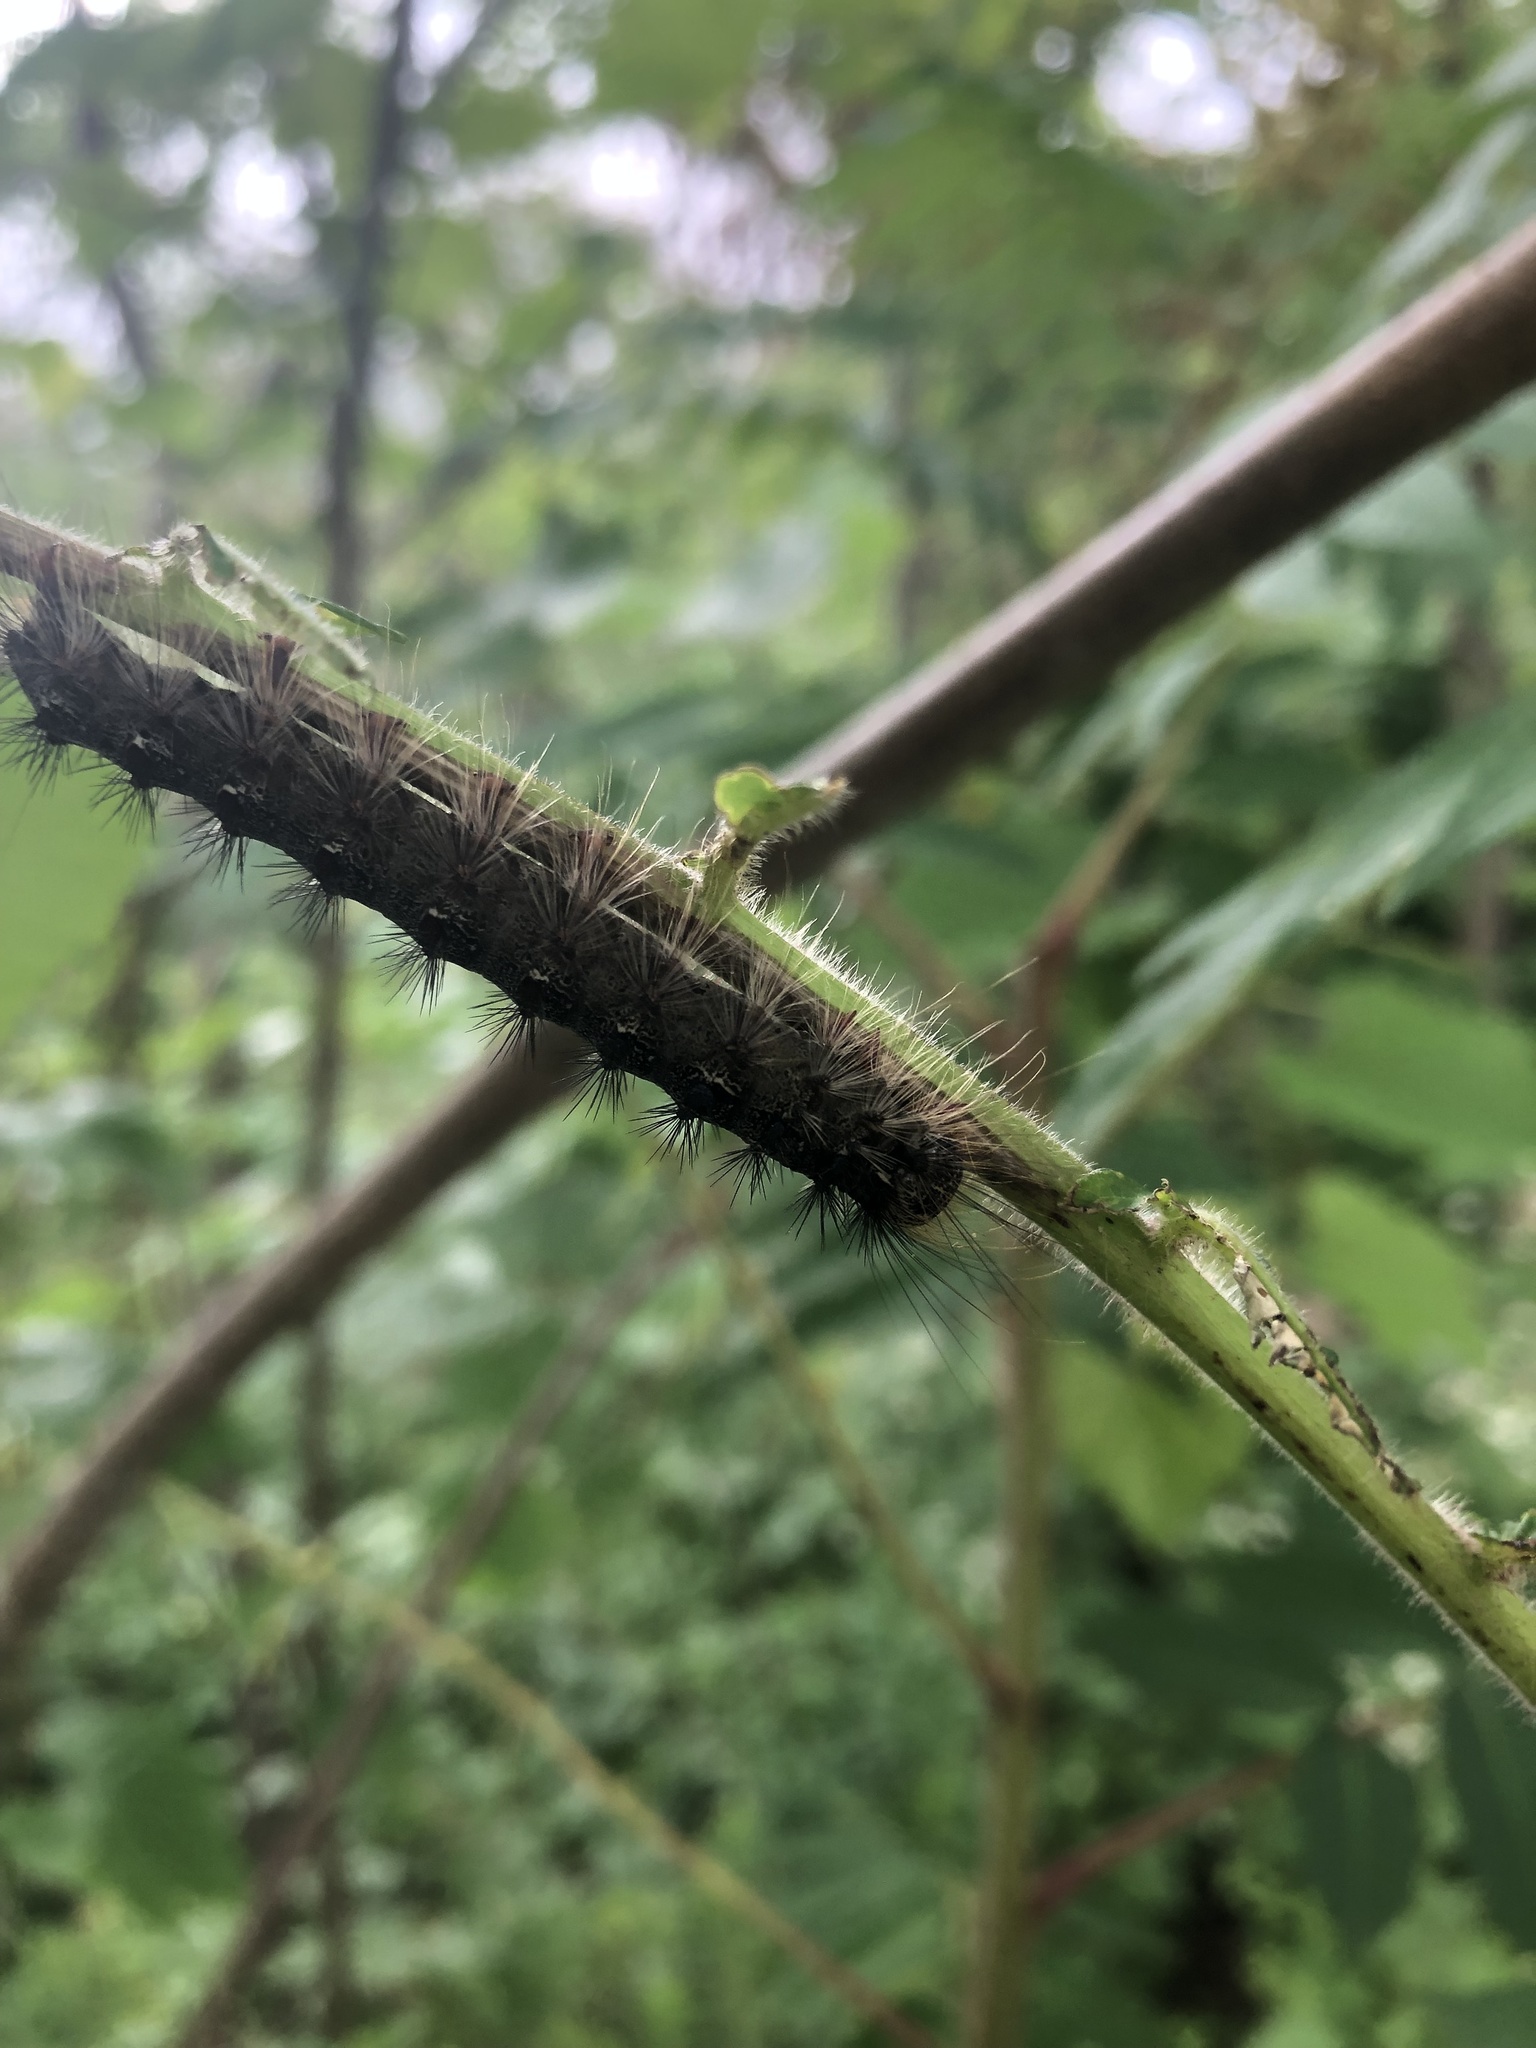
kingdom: Animalia
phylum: Arthropoda
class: Insecta
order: Lepidoptera
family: Erebidae
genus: Lymantria
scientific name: Lymantria dispar
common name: Gypsy moth
